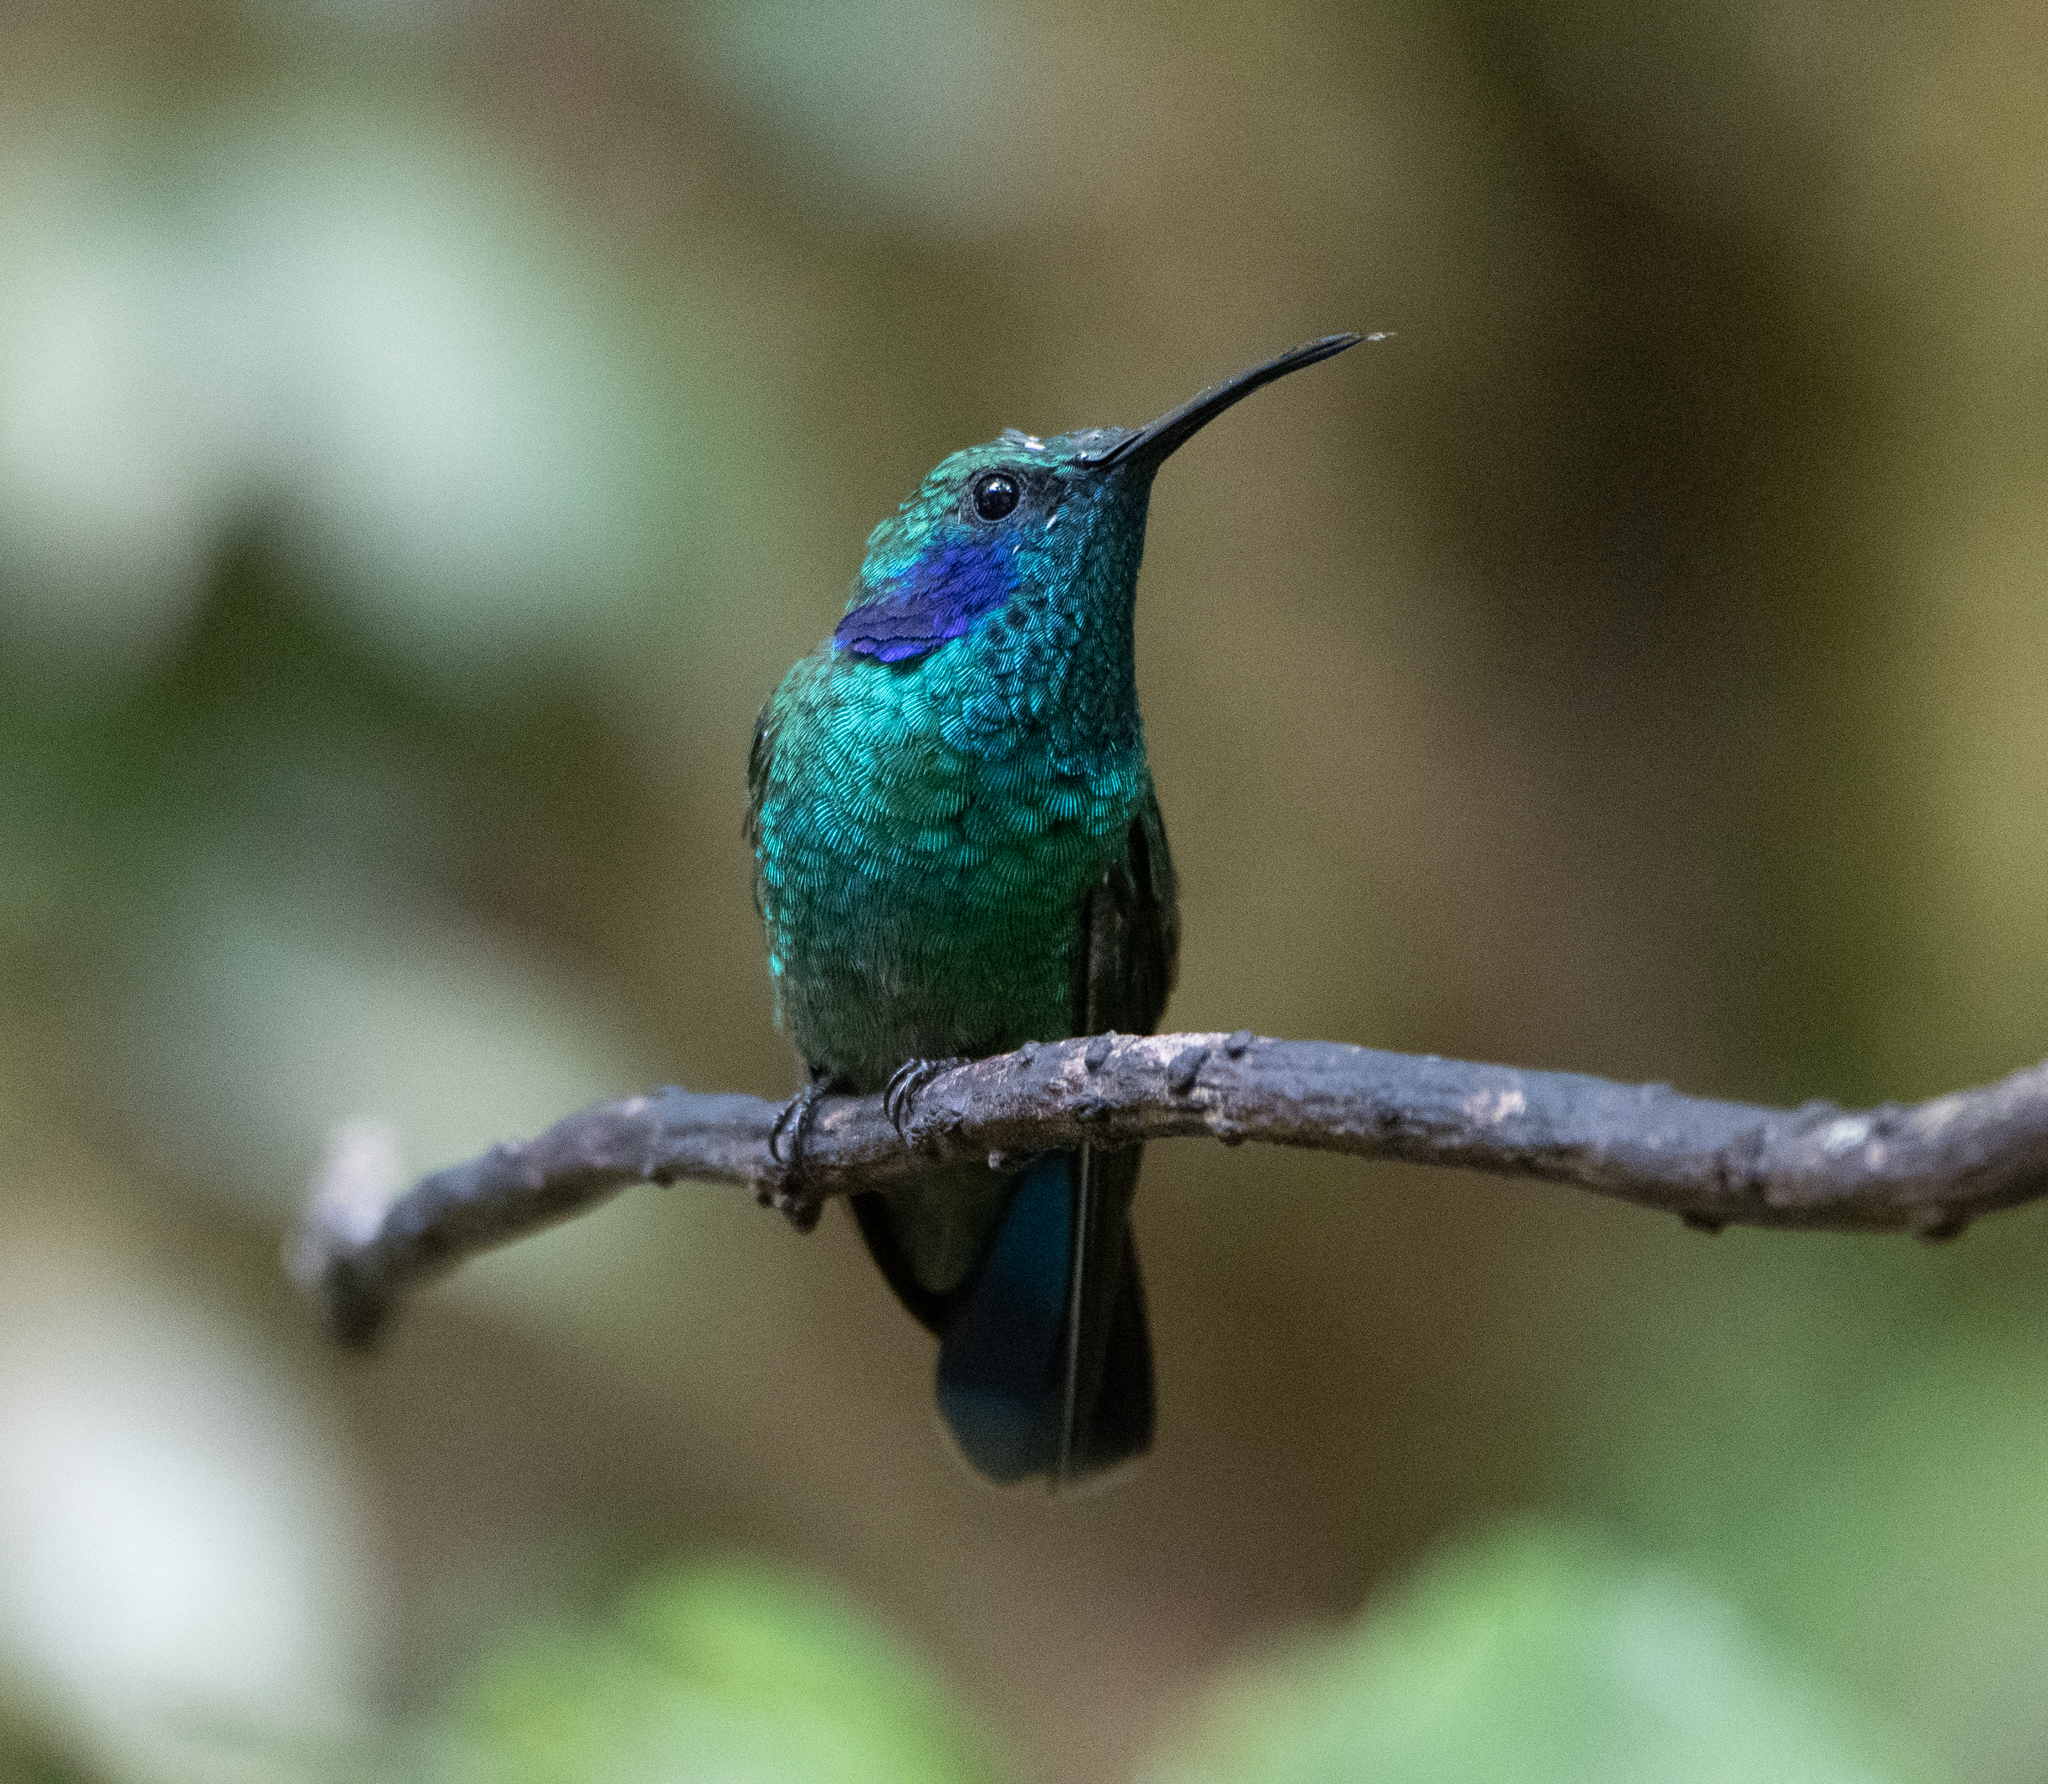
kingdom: Animalia
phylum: Chordata
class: Aves
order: Apodiformes
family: Trochilidae
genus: Colibri
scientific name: Colibri cyanotus
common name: Lesser violetear
